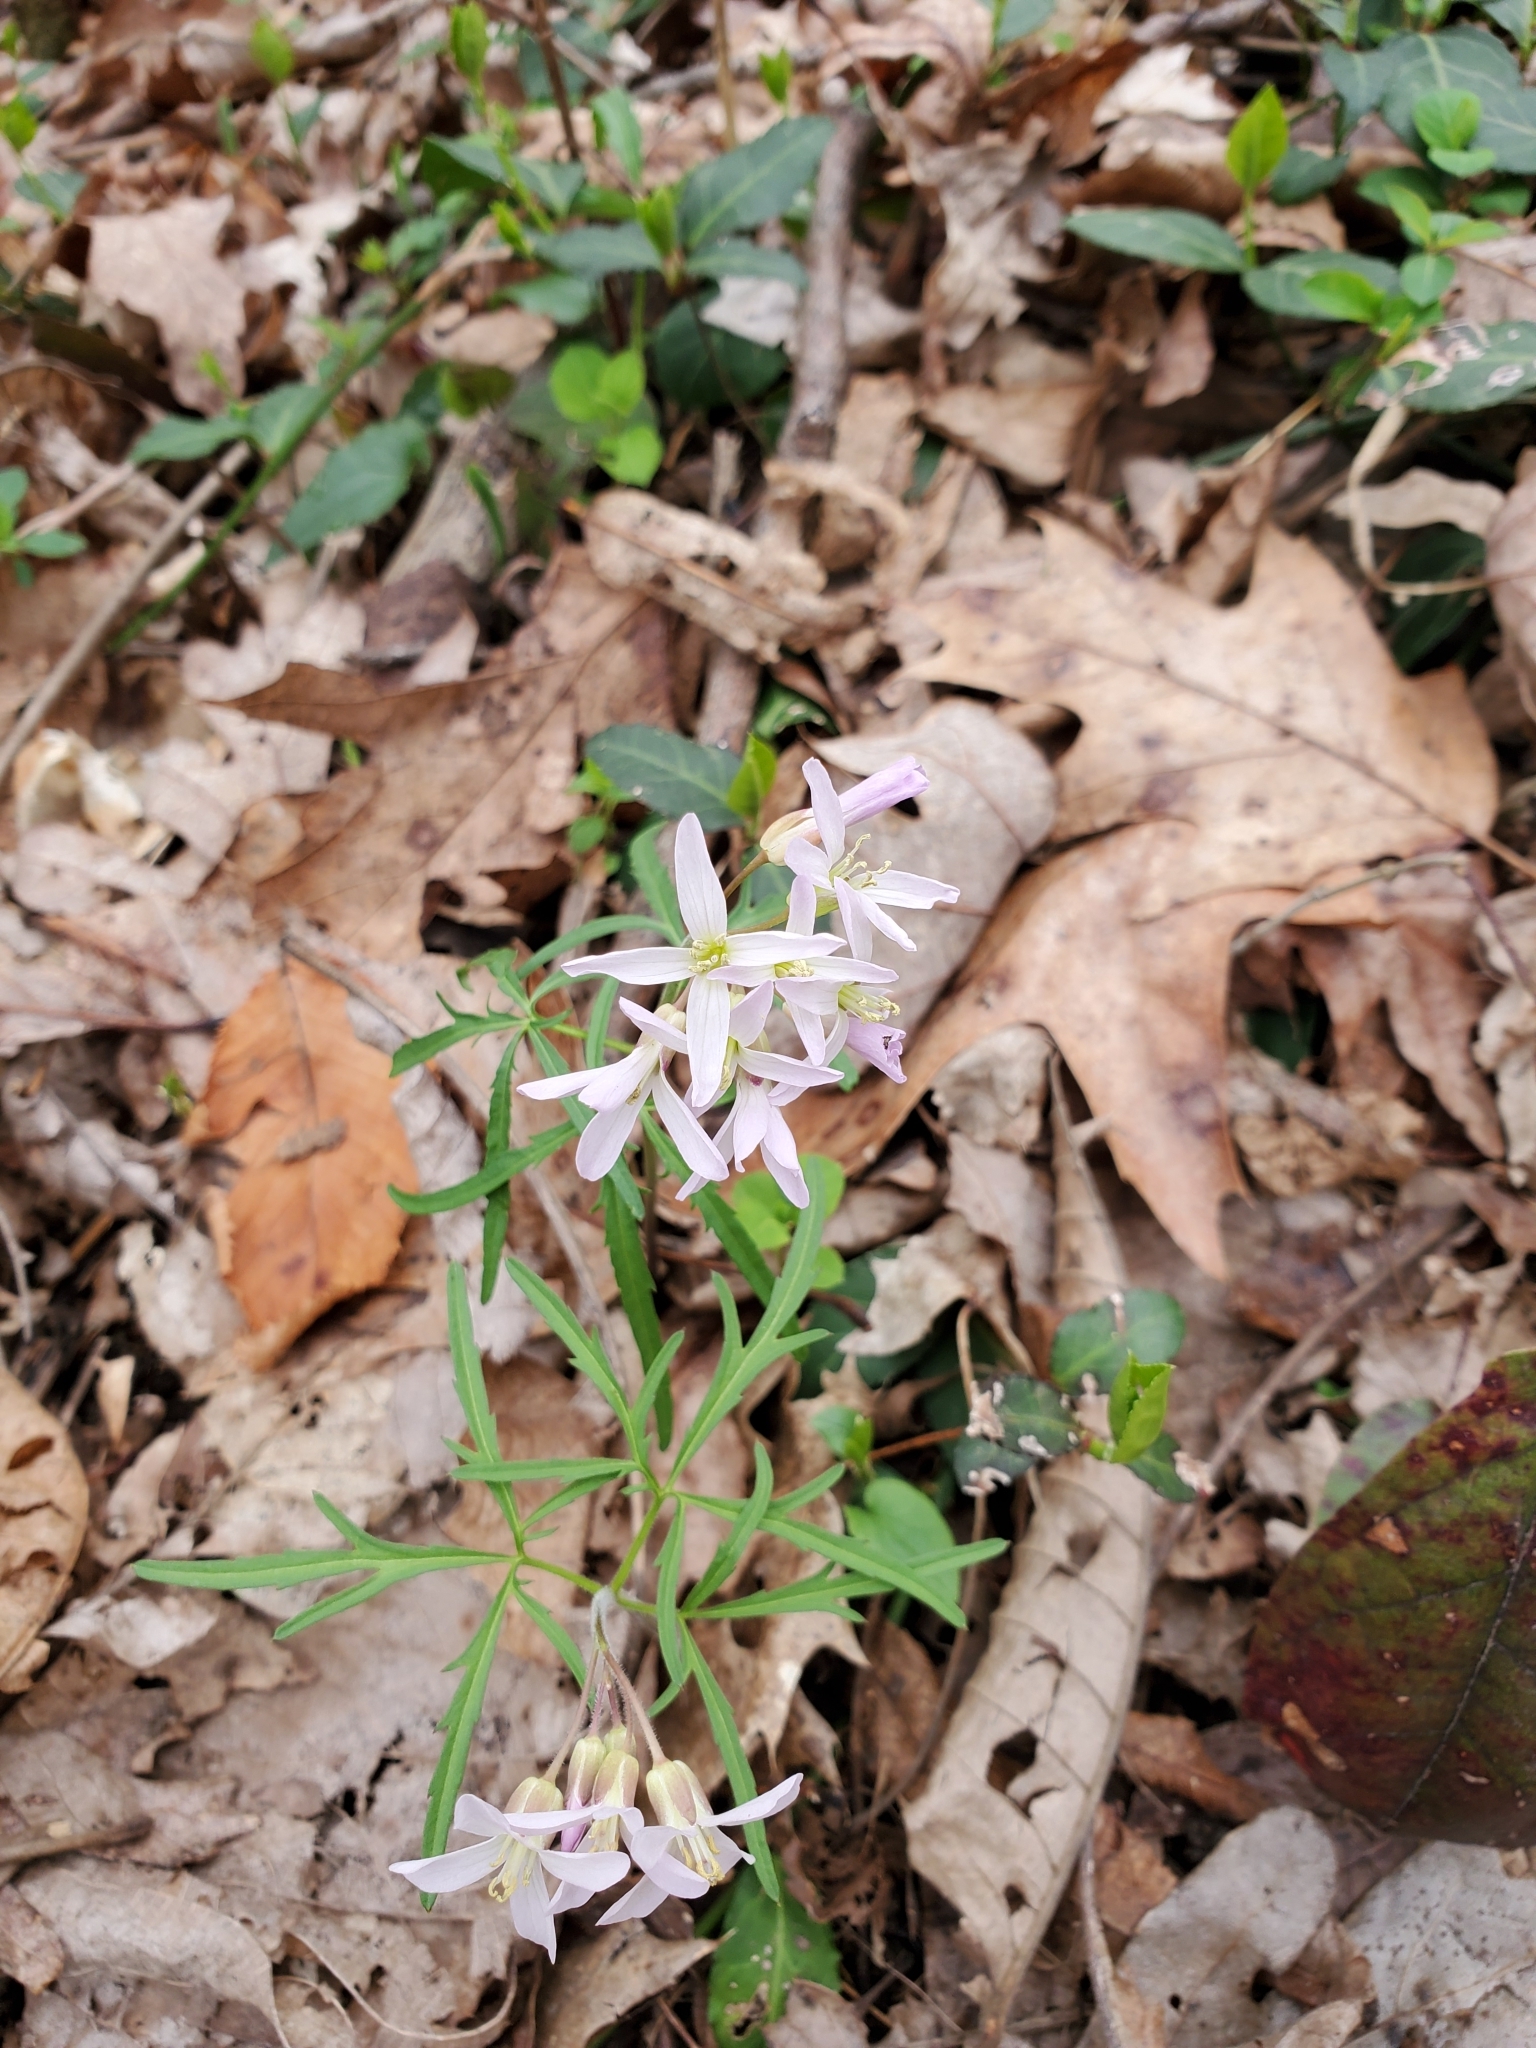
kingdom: Plantae
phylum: Tracheophyta
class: Magnoliopsida
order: Brassicales
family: Brassicaceae
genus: Cardamine
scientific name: Cardamine concatenata
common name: Cut-leaf toothcup
